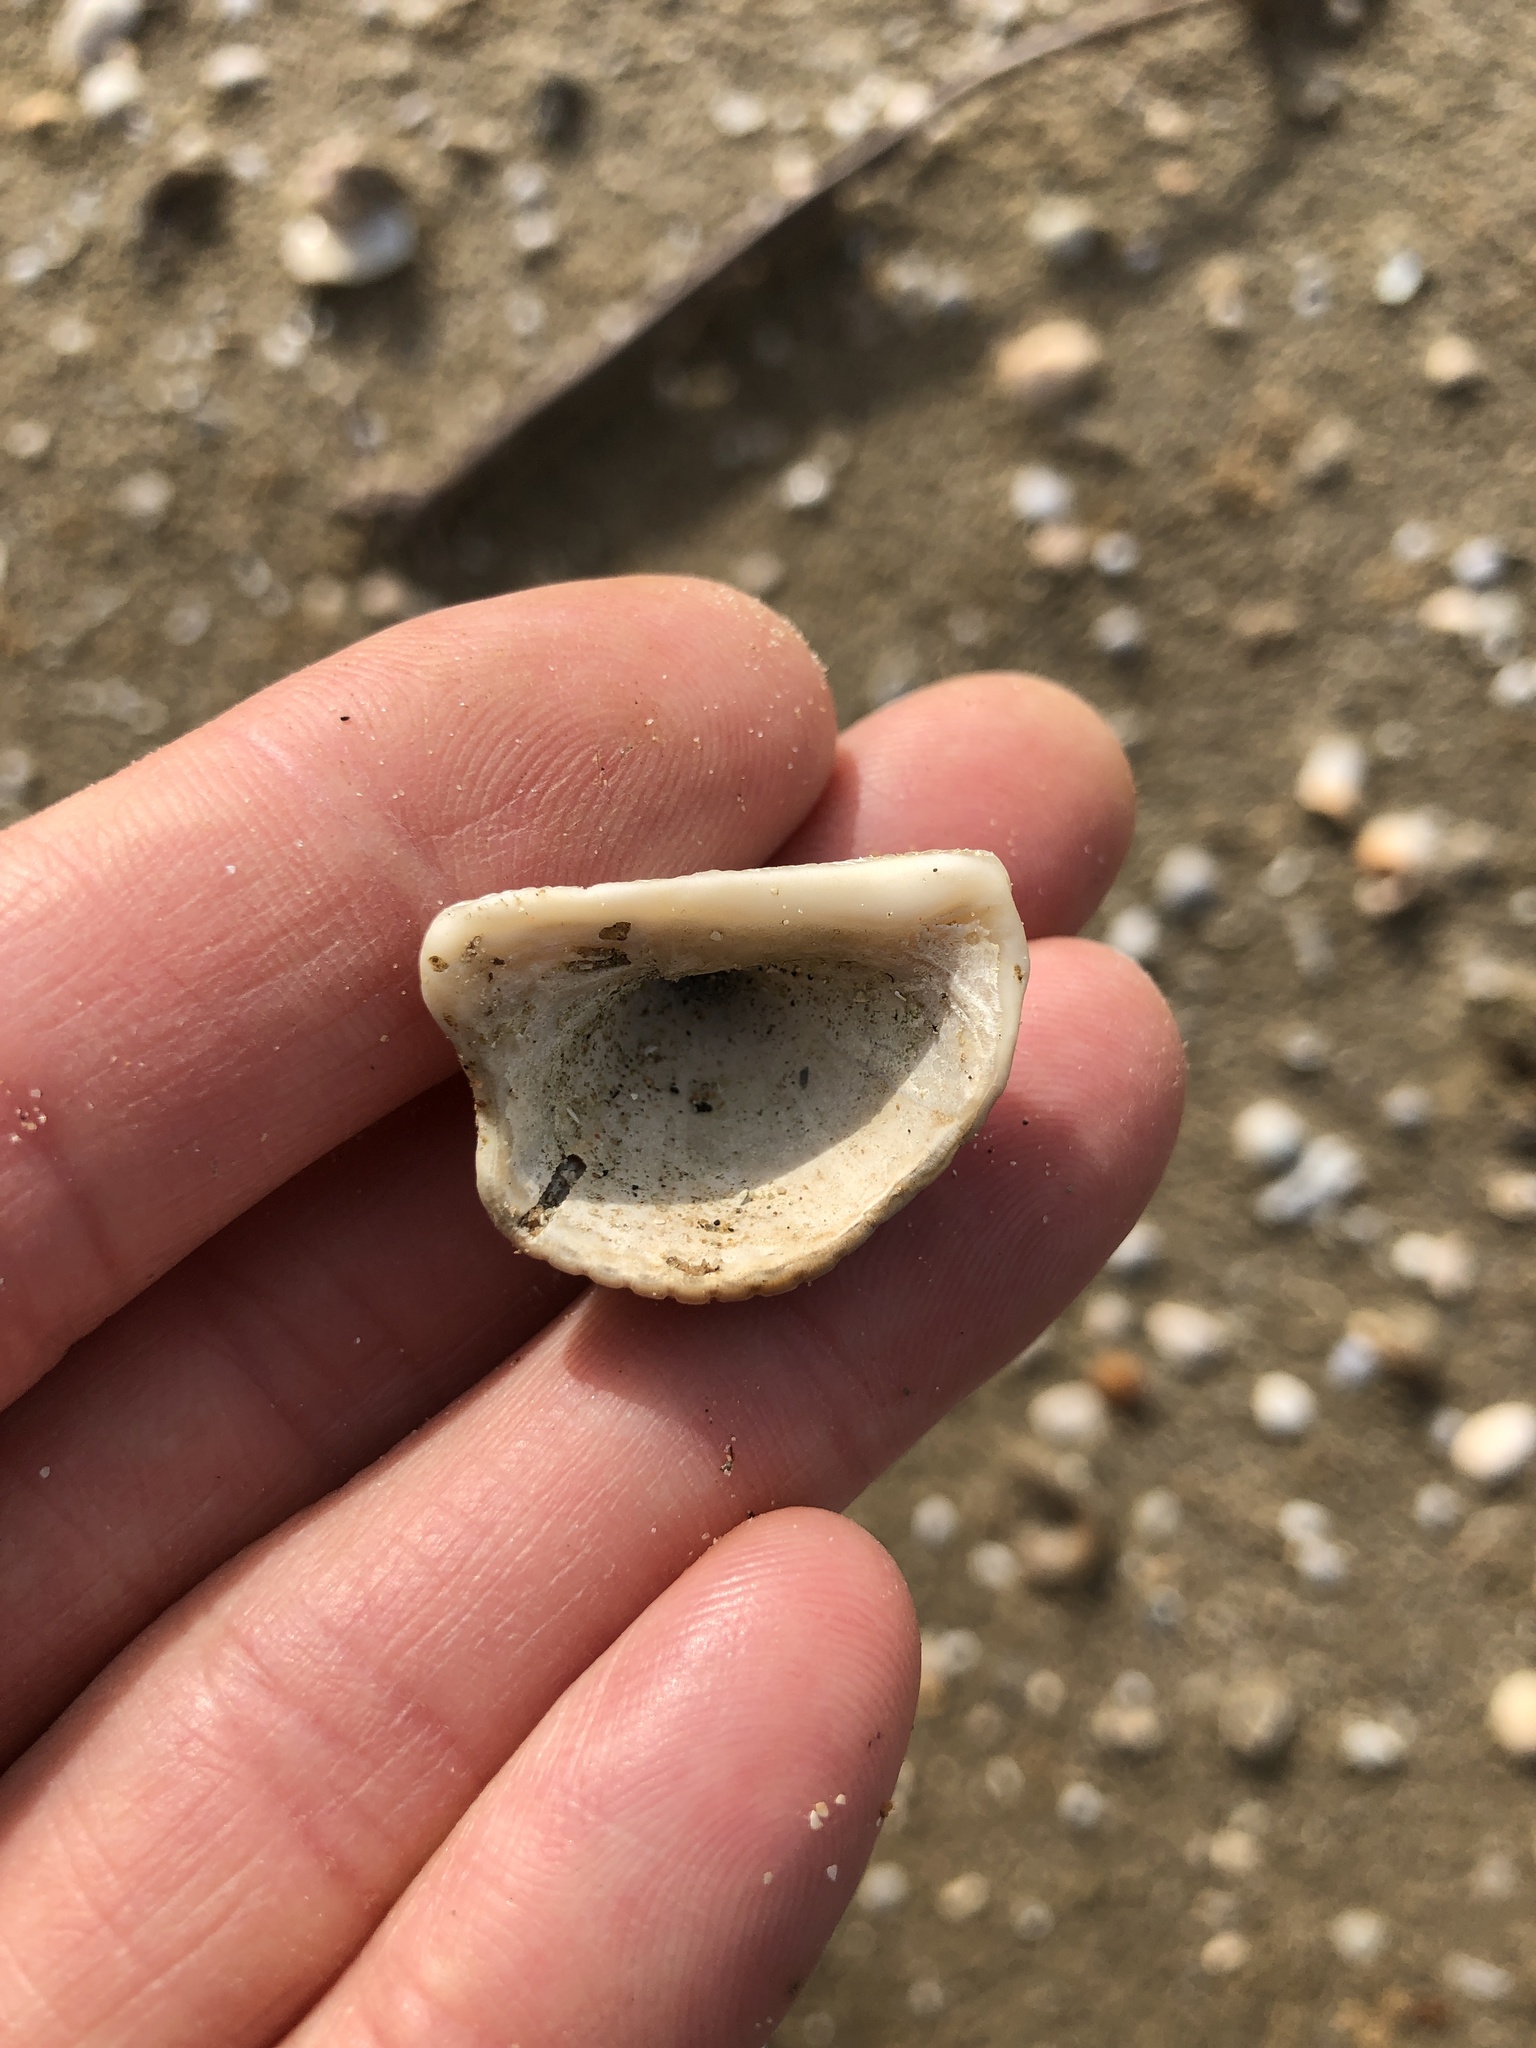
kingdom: Animalia
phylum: Mollusca
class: Bivalvia
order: Arcida
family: Arcidae
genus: Anadara
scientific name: Anadara brasiliana
